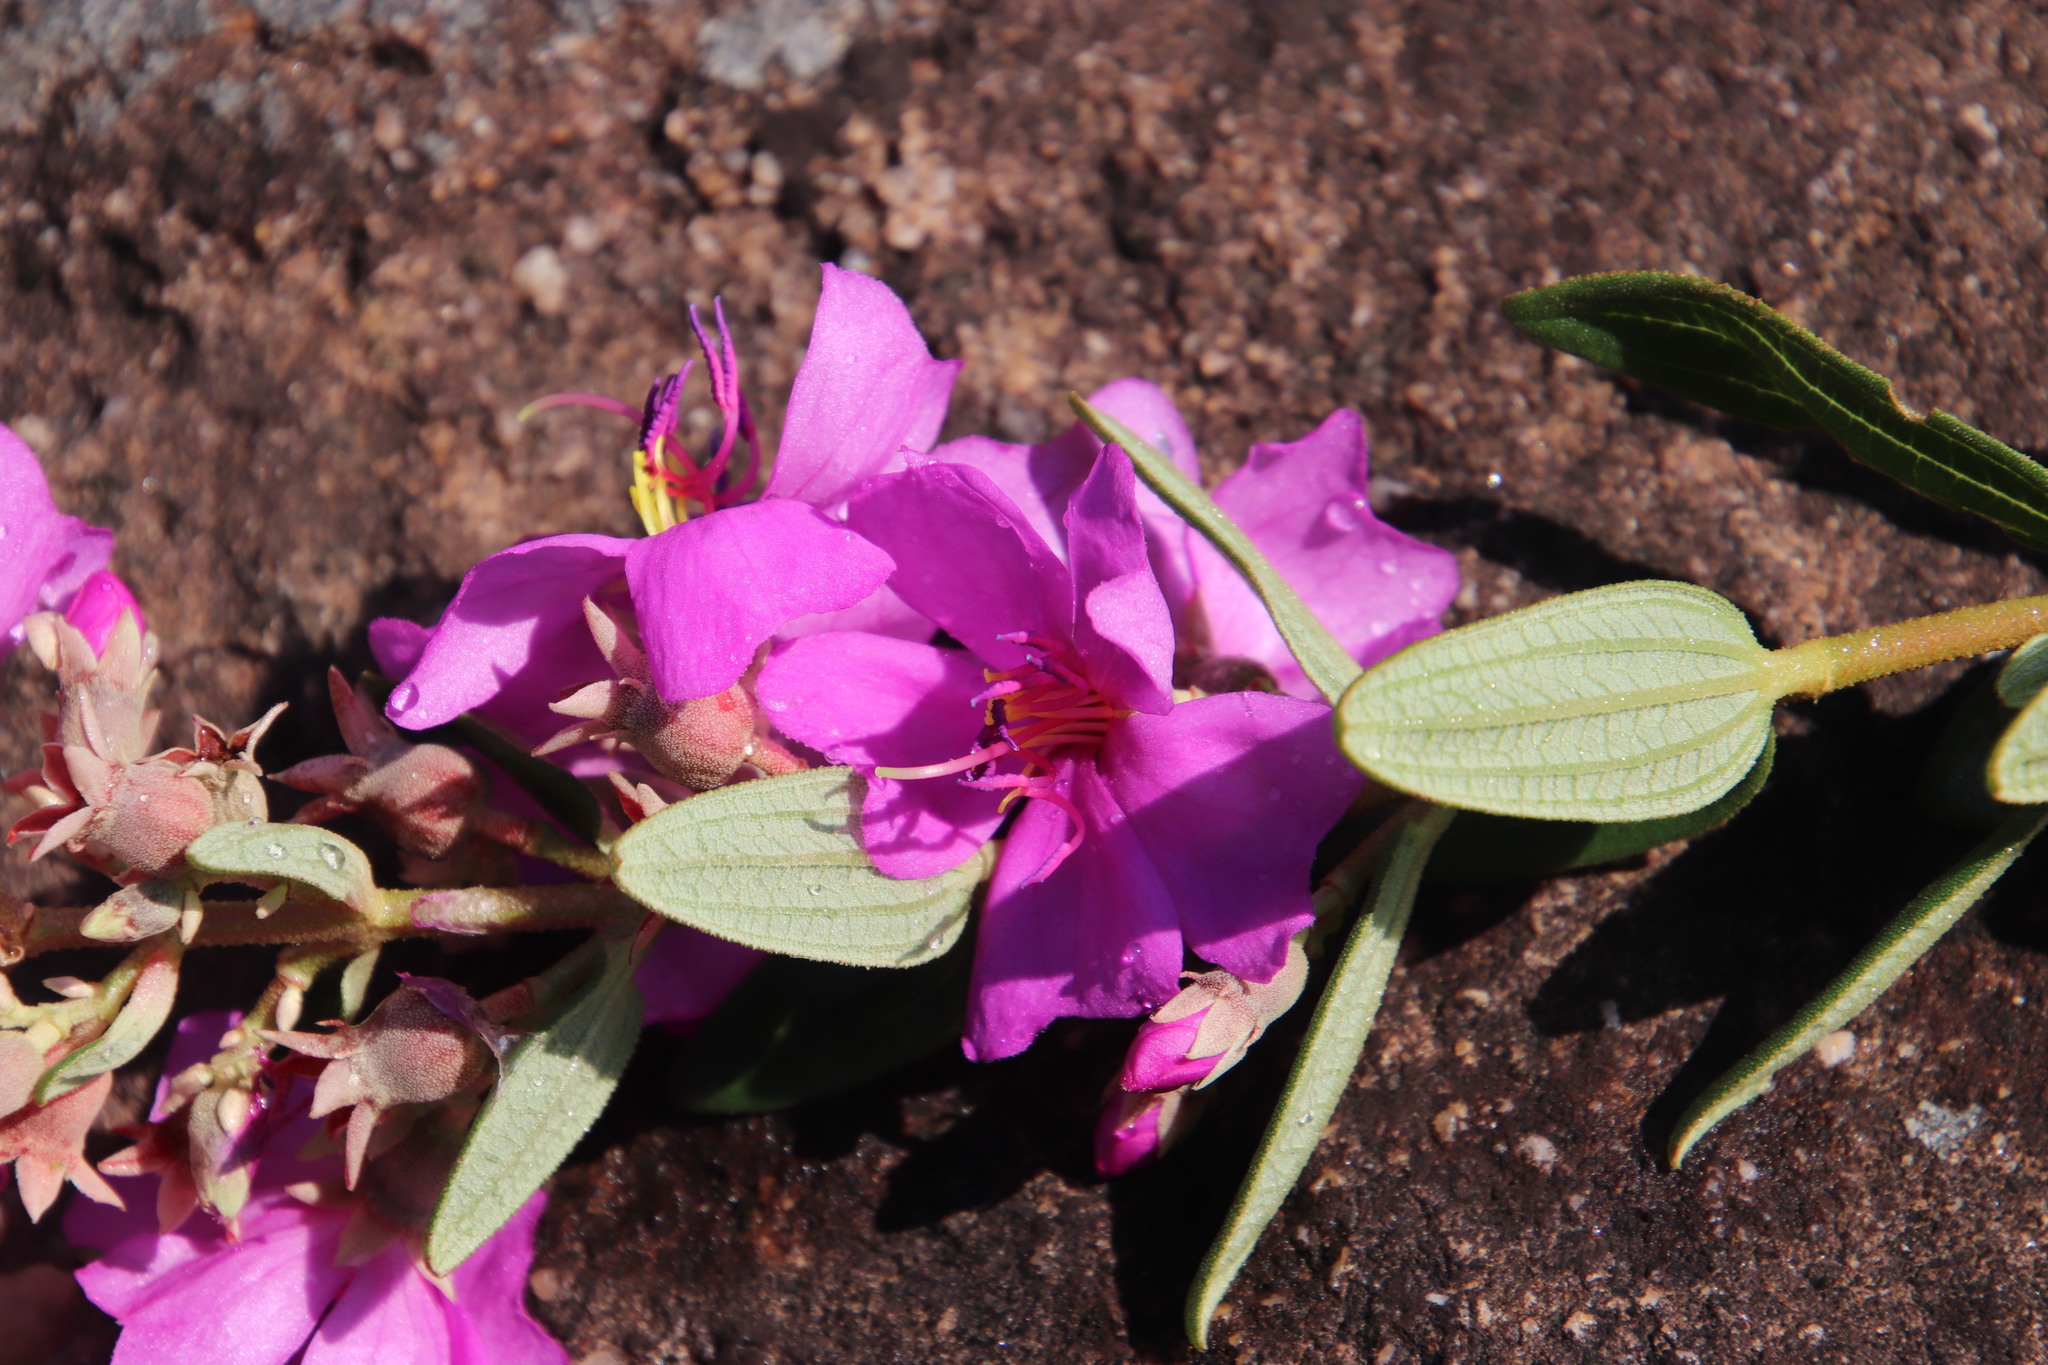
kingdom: Plantae
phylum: Tracheophyta
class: Magnoliopsida
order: Myrtales
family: Melastomataceae
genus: Argyrella
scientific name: Argyrella canescens
